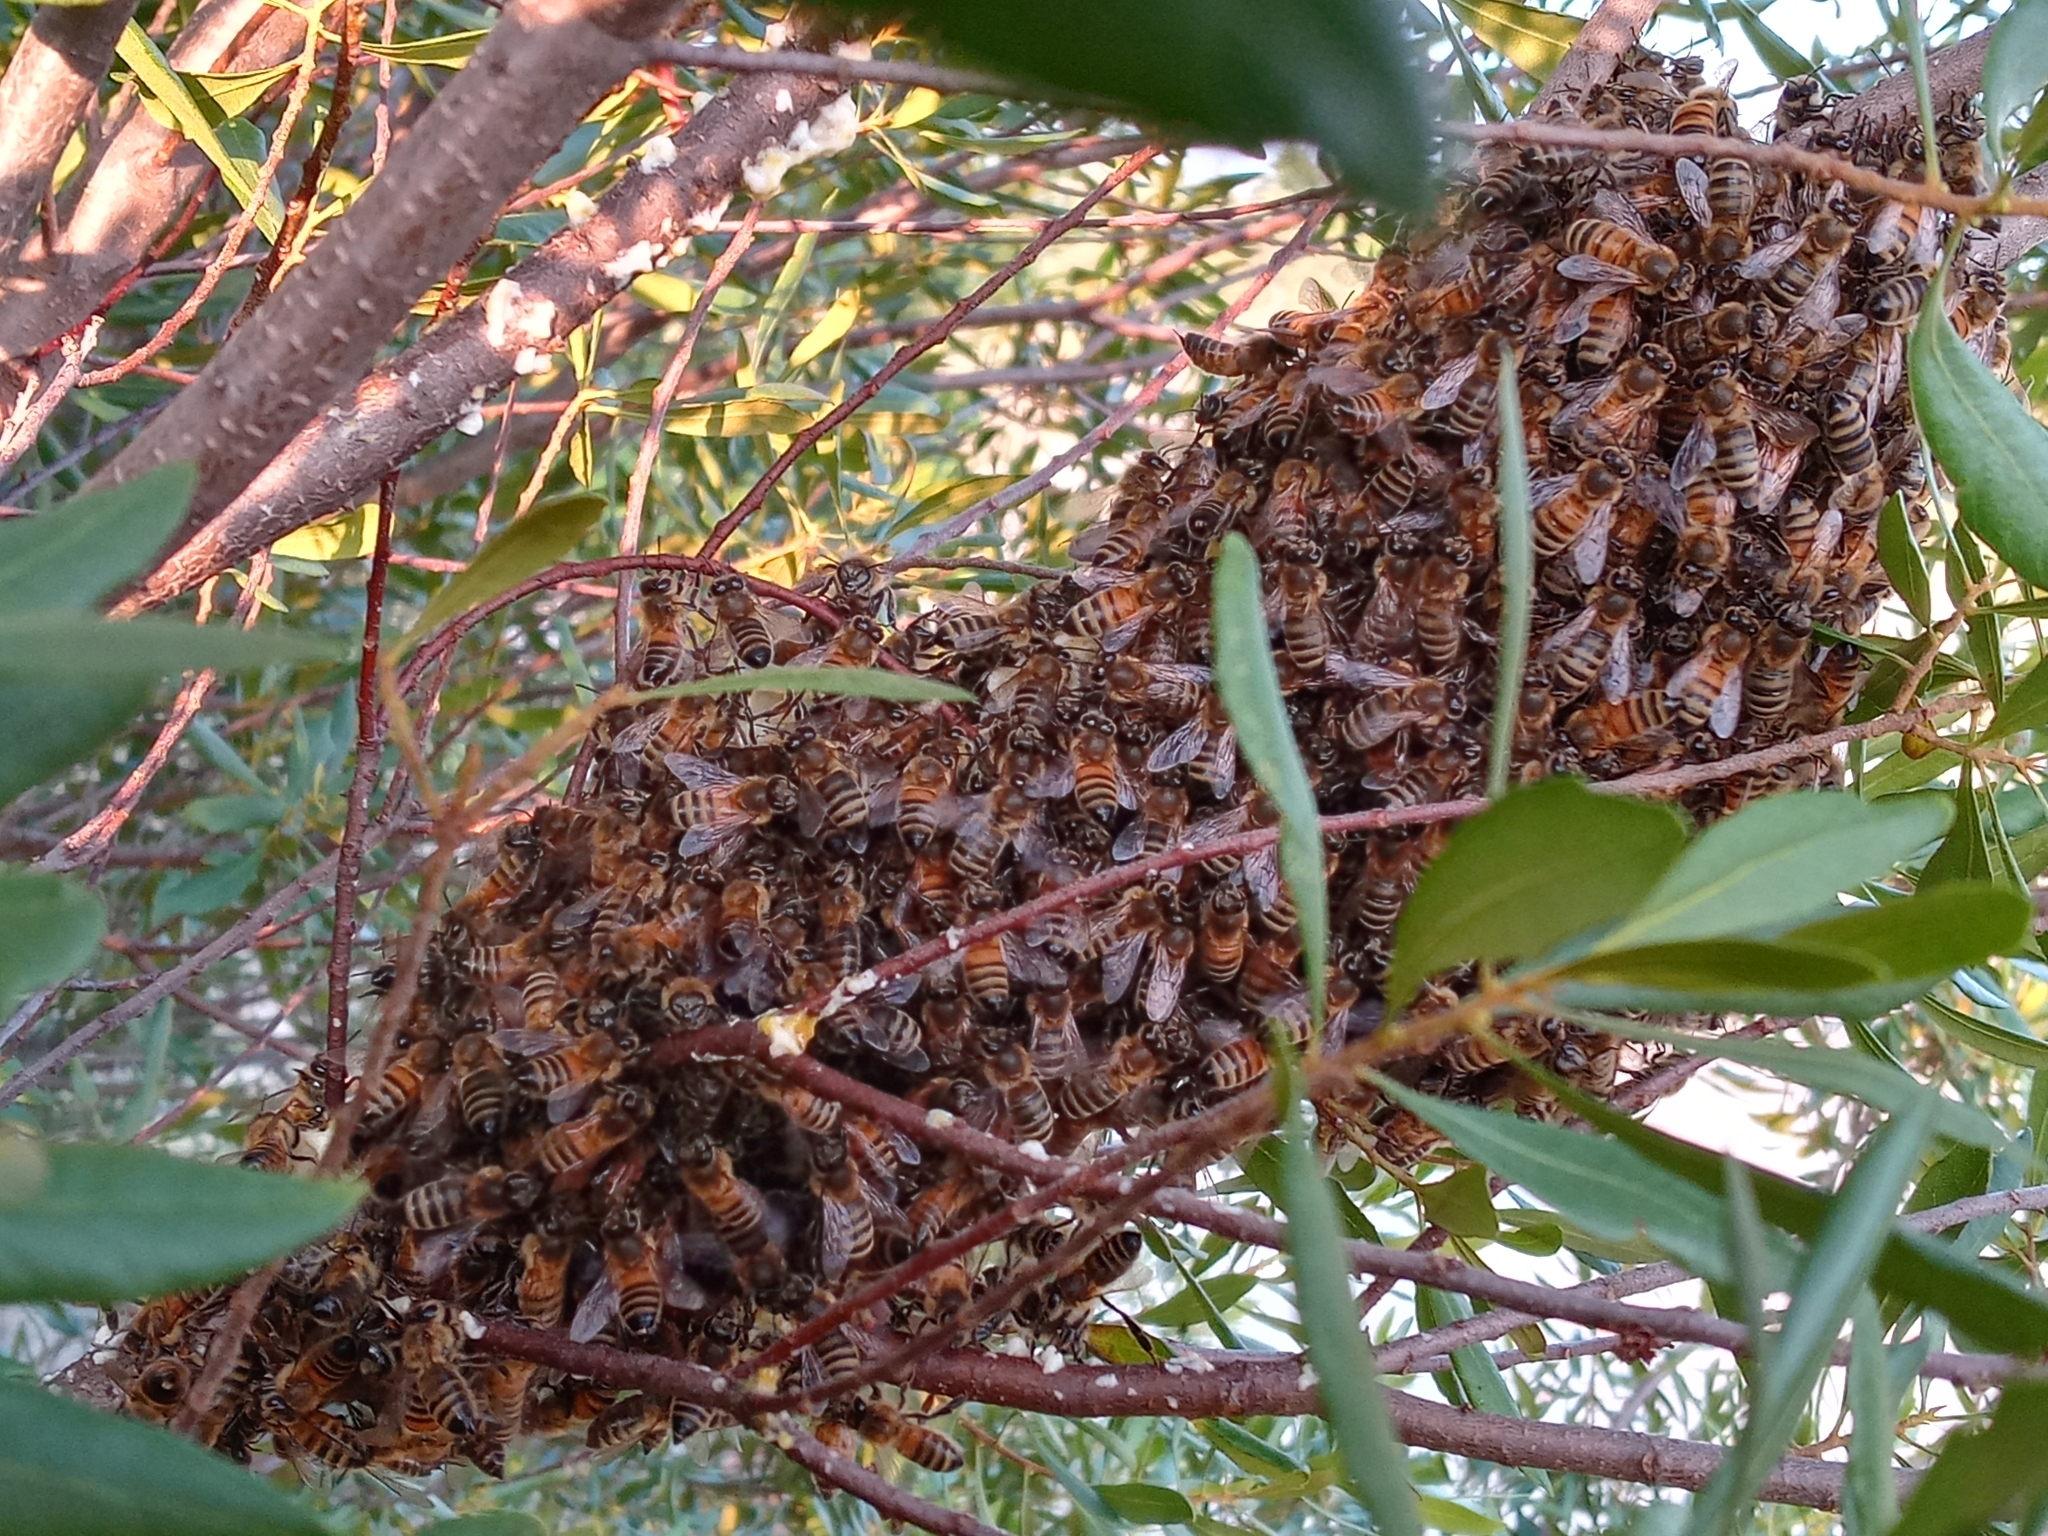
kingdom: Animalia
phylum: Arthropoda
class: Insecta
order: Hymenoptera
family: Apidae
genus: Apis
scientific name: Apis mellifera
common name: Honey bee
